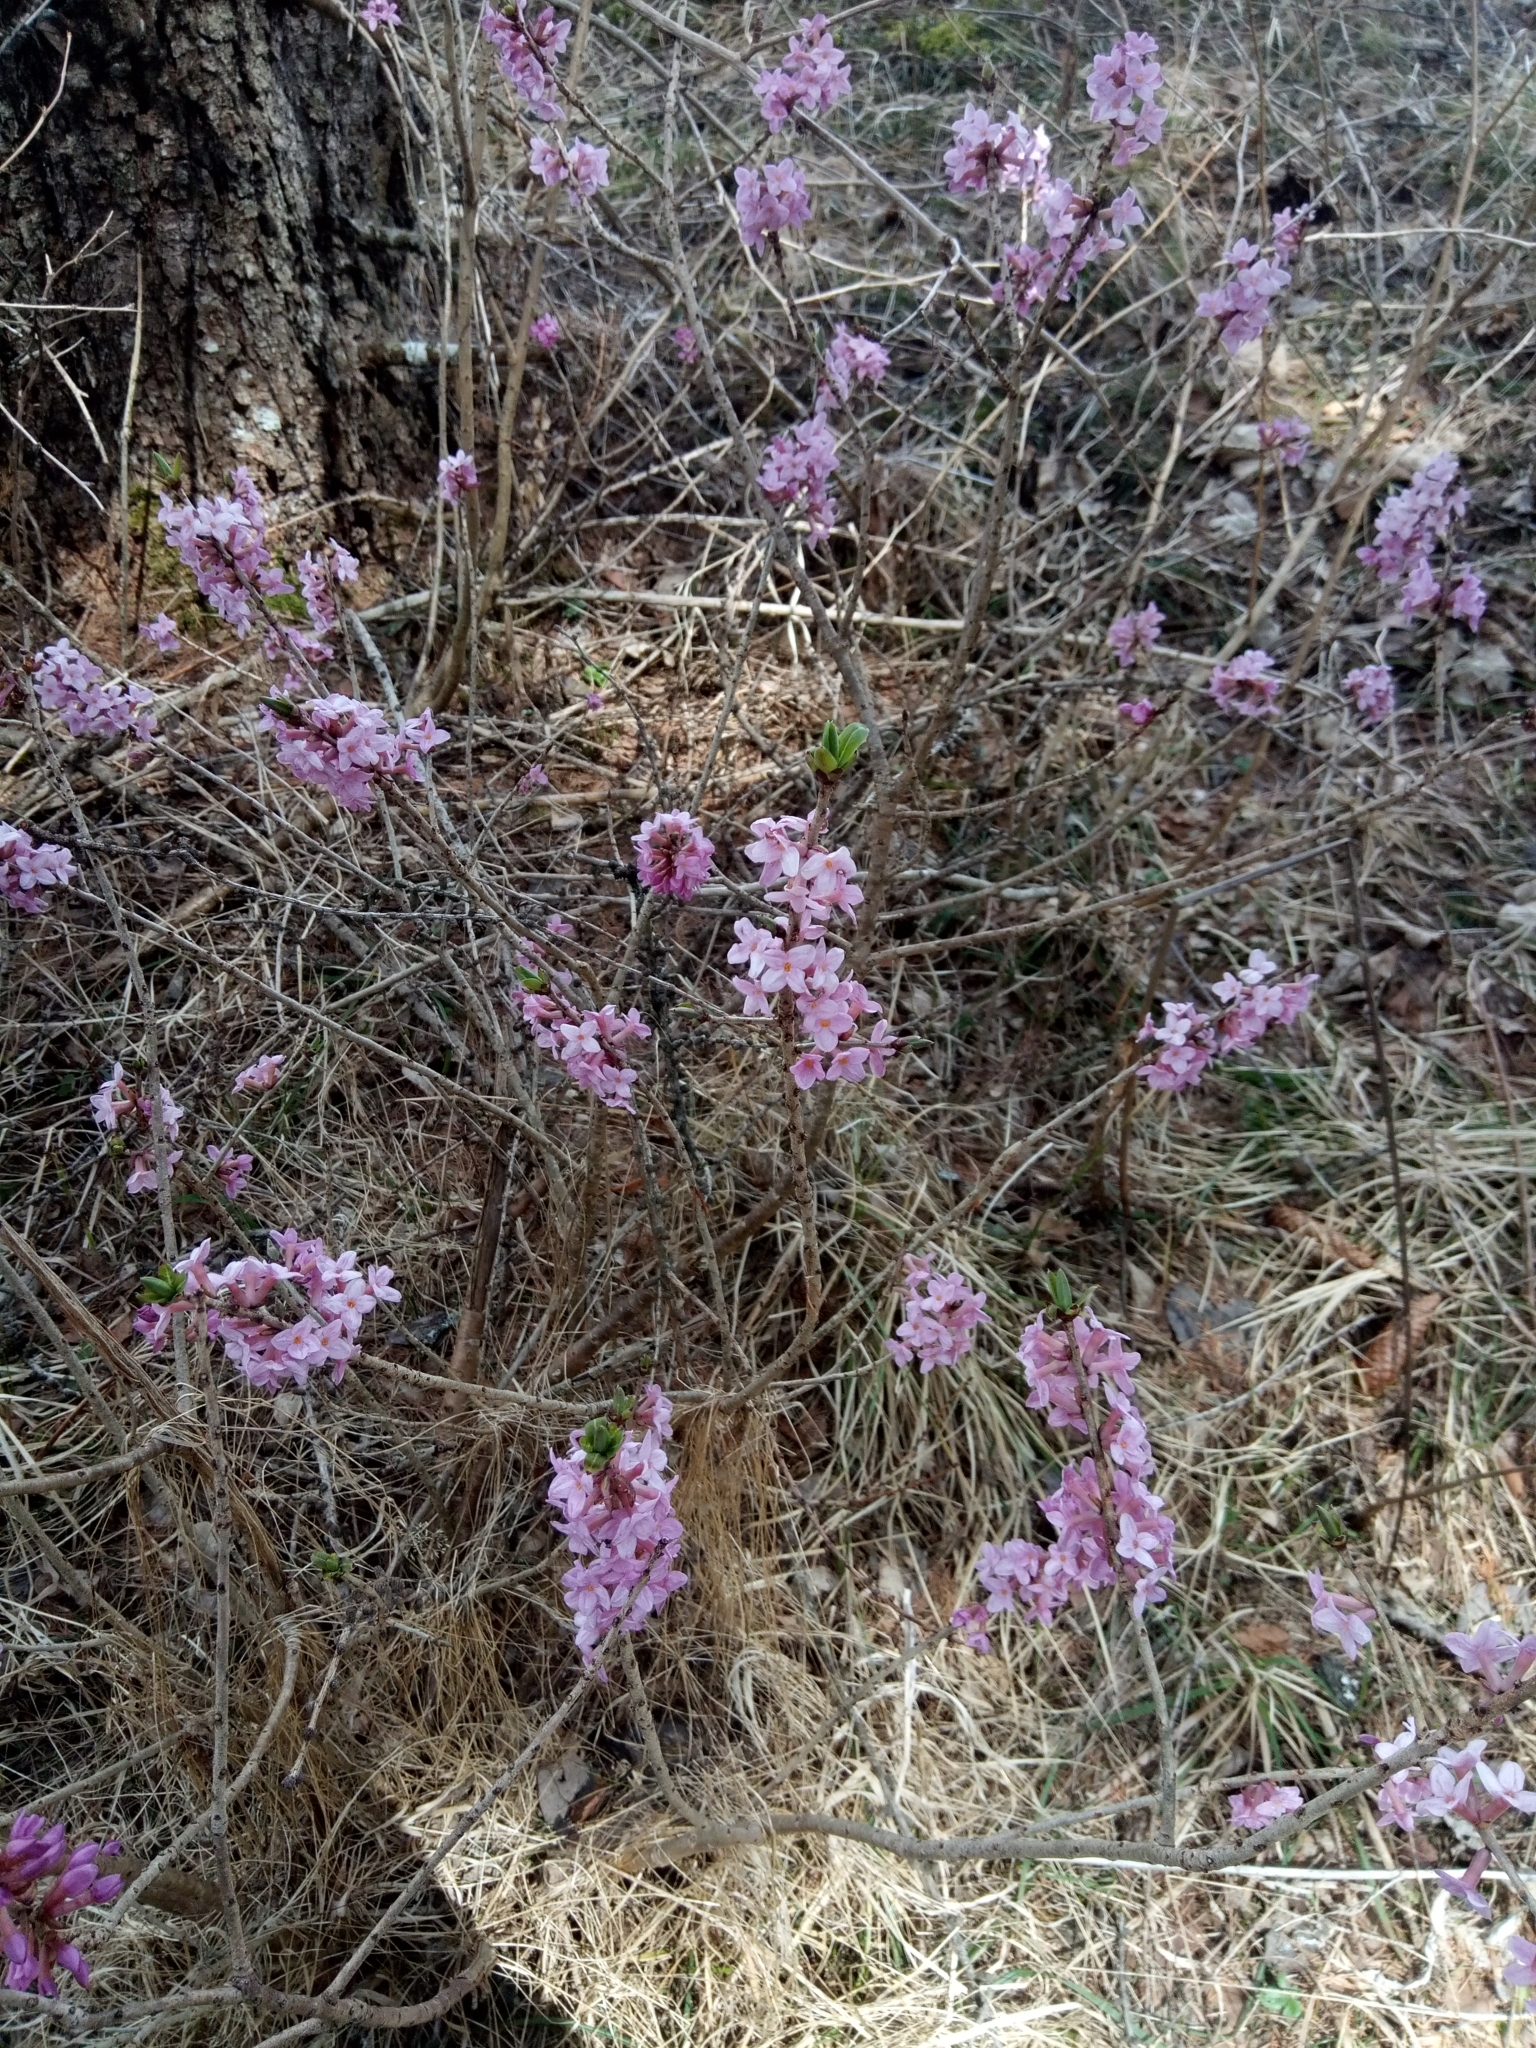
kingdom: Plantae
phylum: Tracheophyta
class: Magnoliopsida
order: Malvales
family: Thymelaeaceae
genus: Daphne
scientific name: Daphne mezereum
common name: Mezereon
